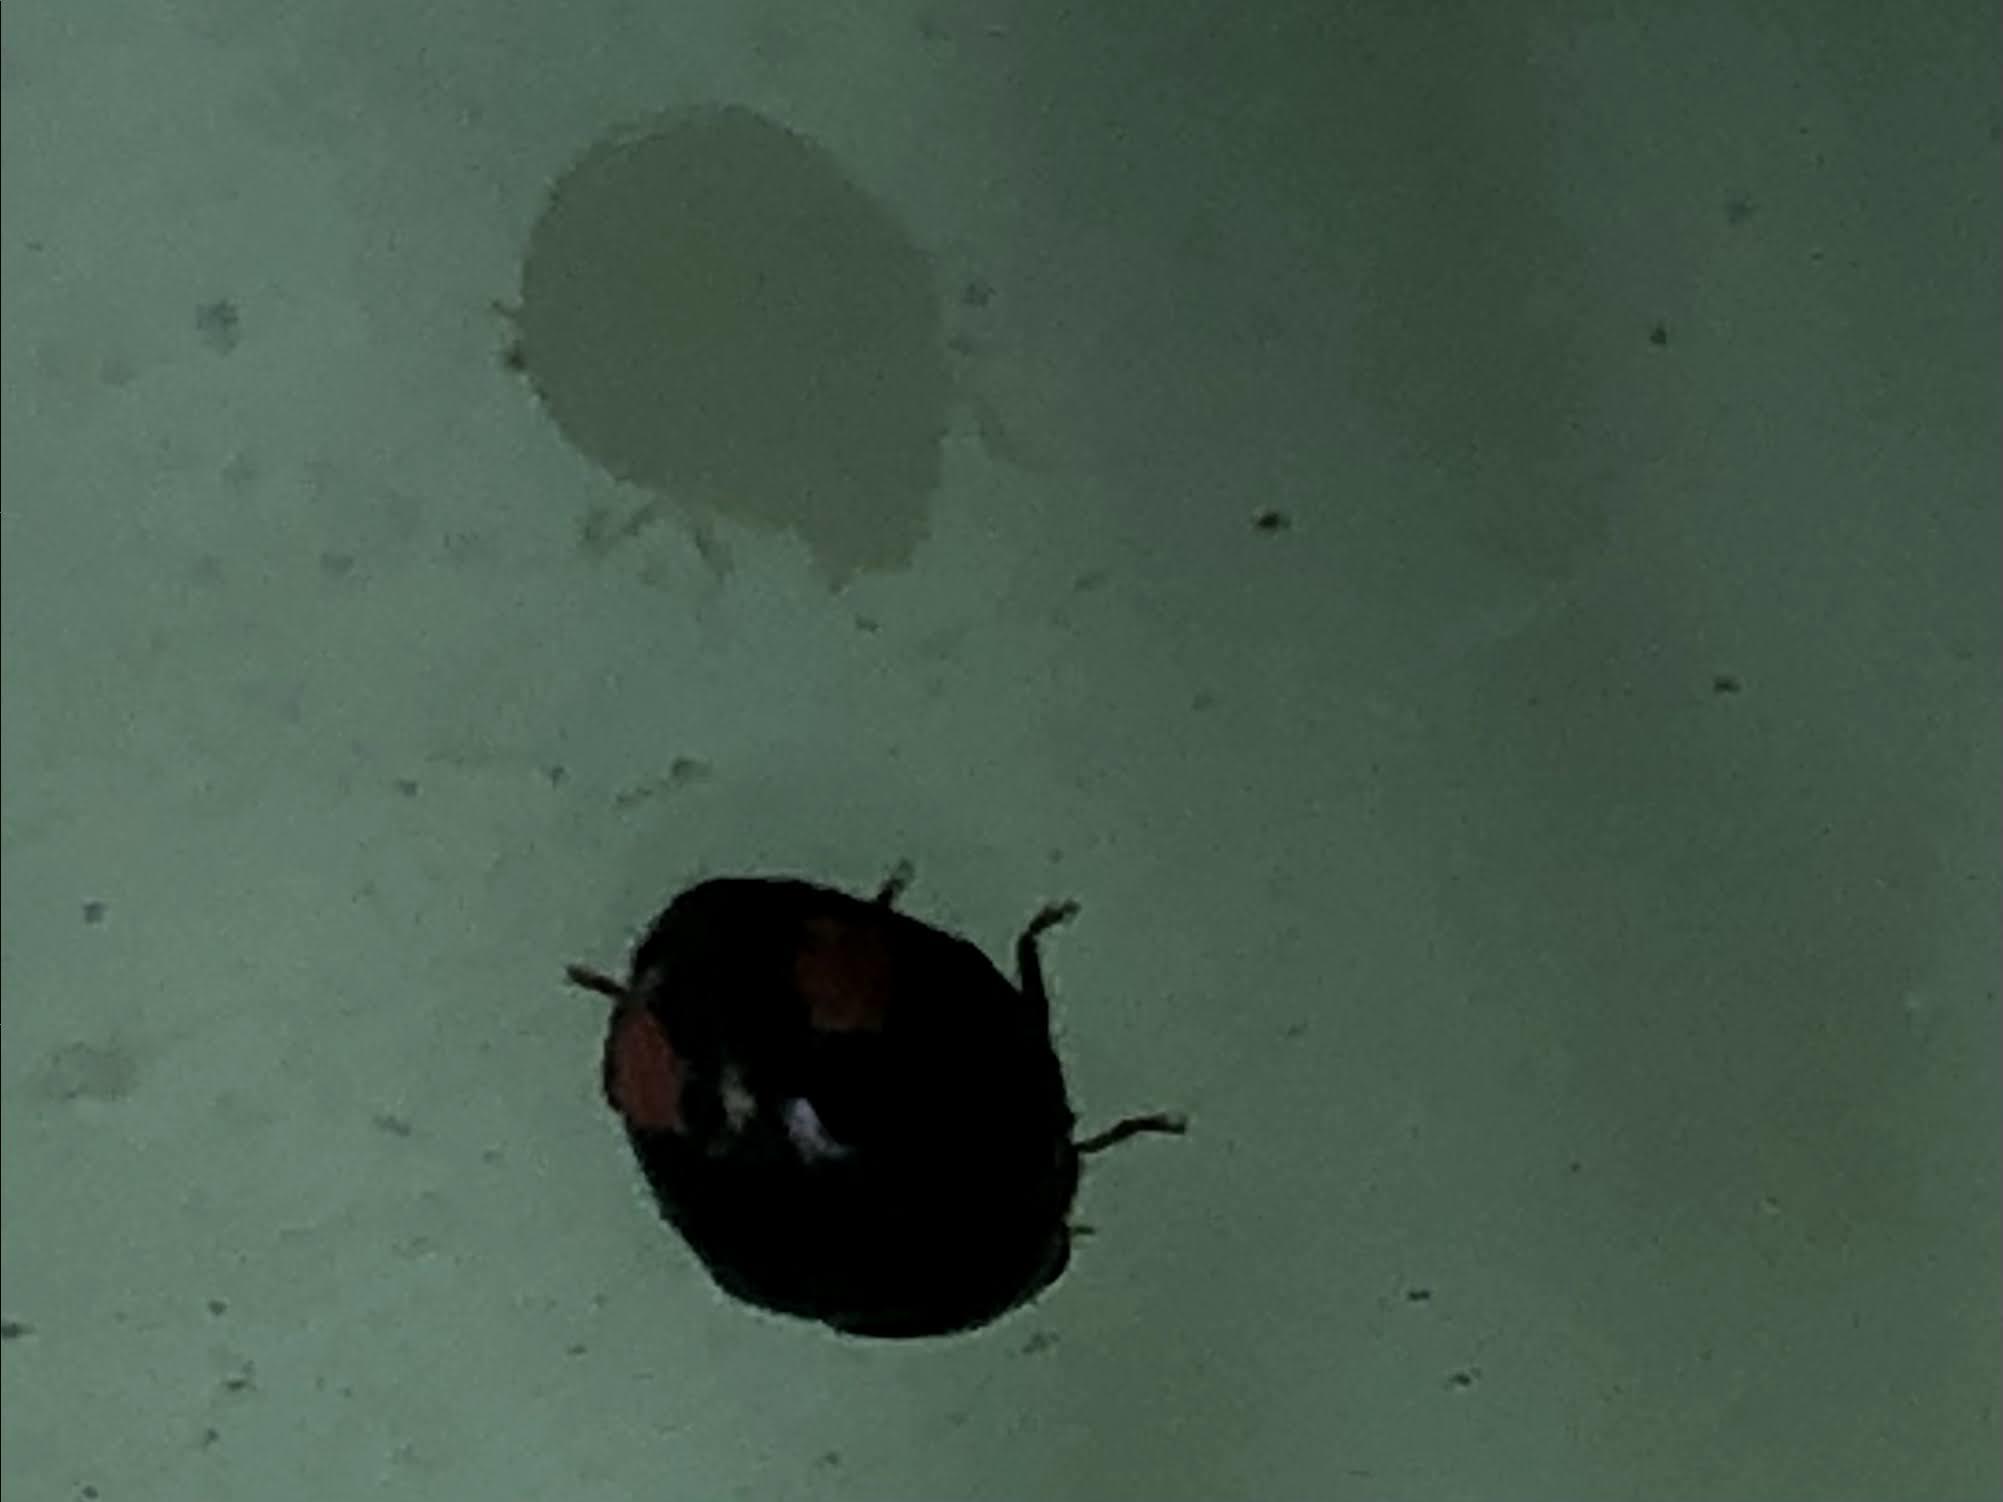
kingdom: Animalia
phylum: Arthropoda
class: Insecta
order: Coleoptera
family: Coccinellidae
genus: Hyperaspis
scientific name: Hyperaspis bigeminata
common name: Bigeminate sigil lady beetle
